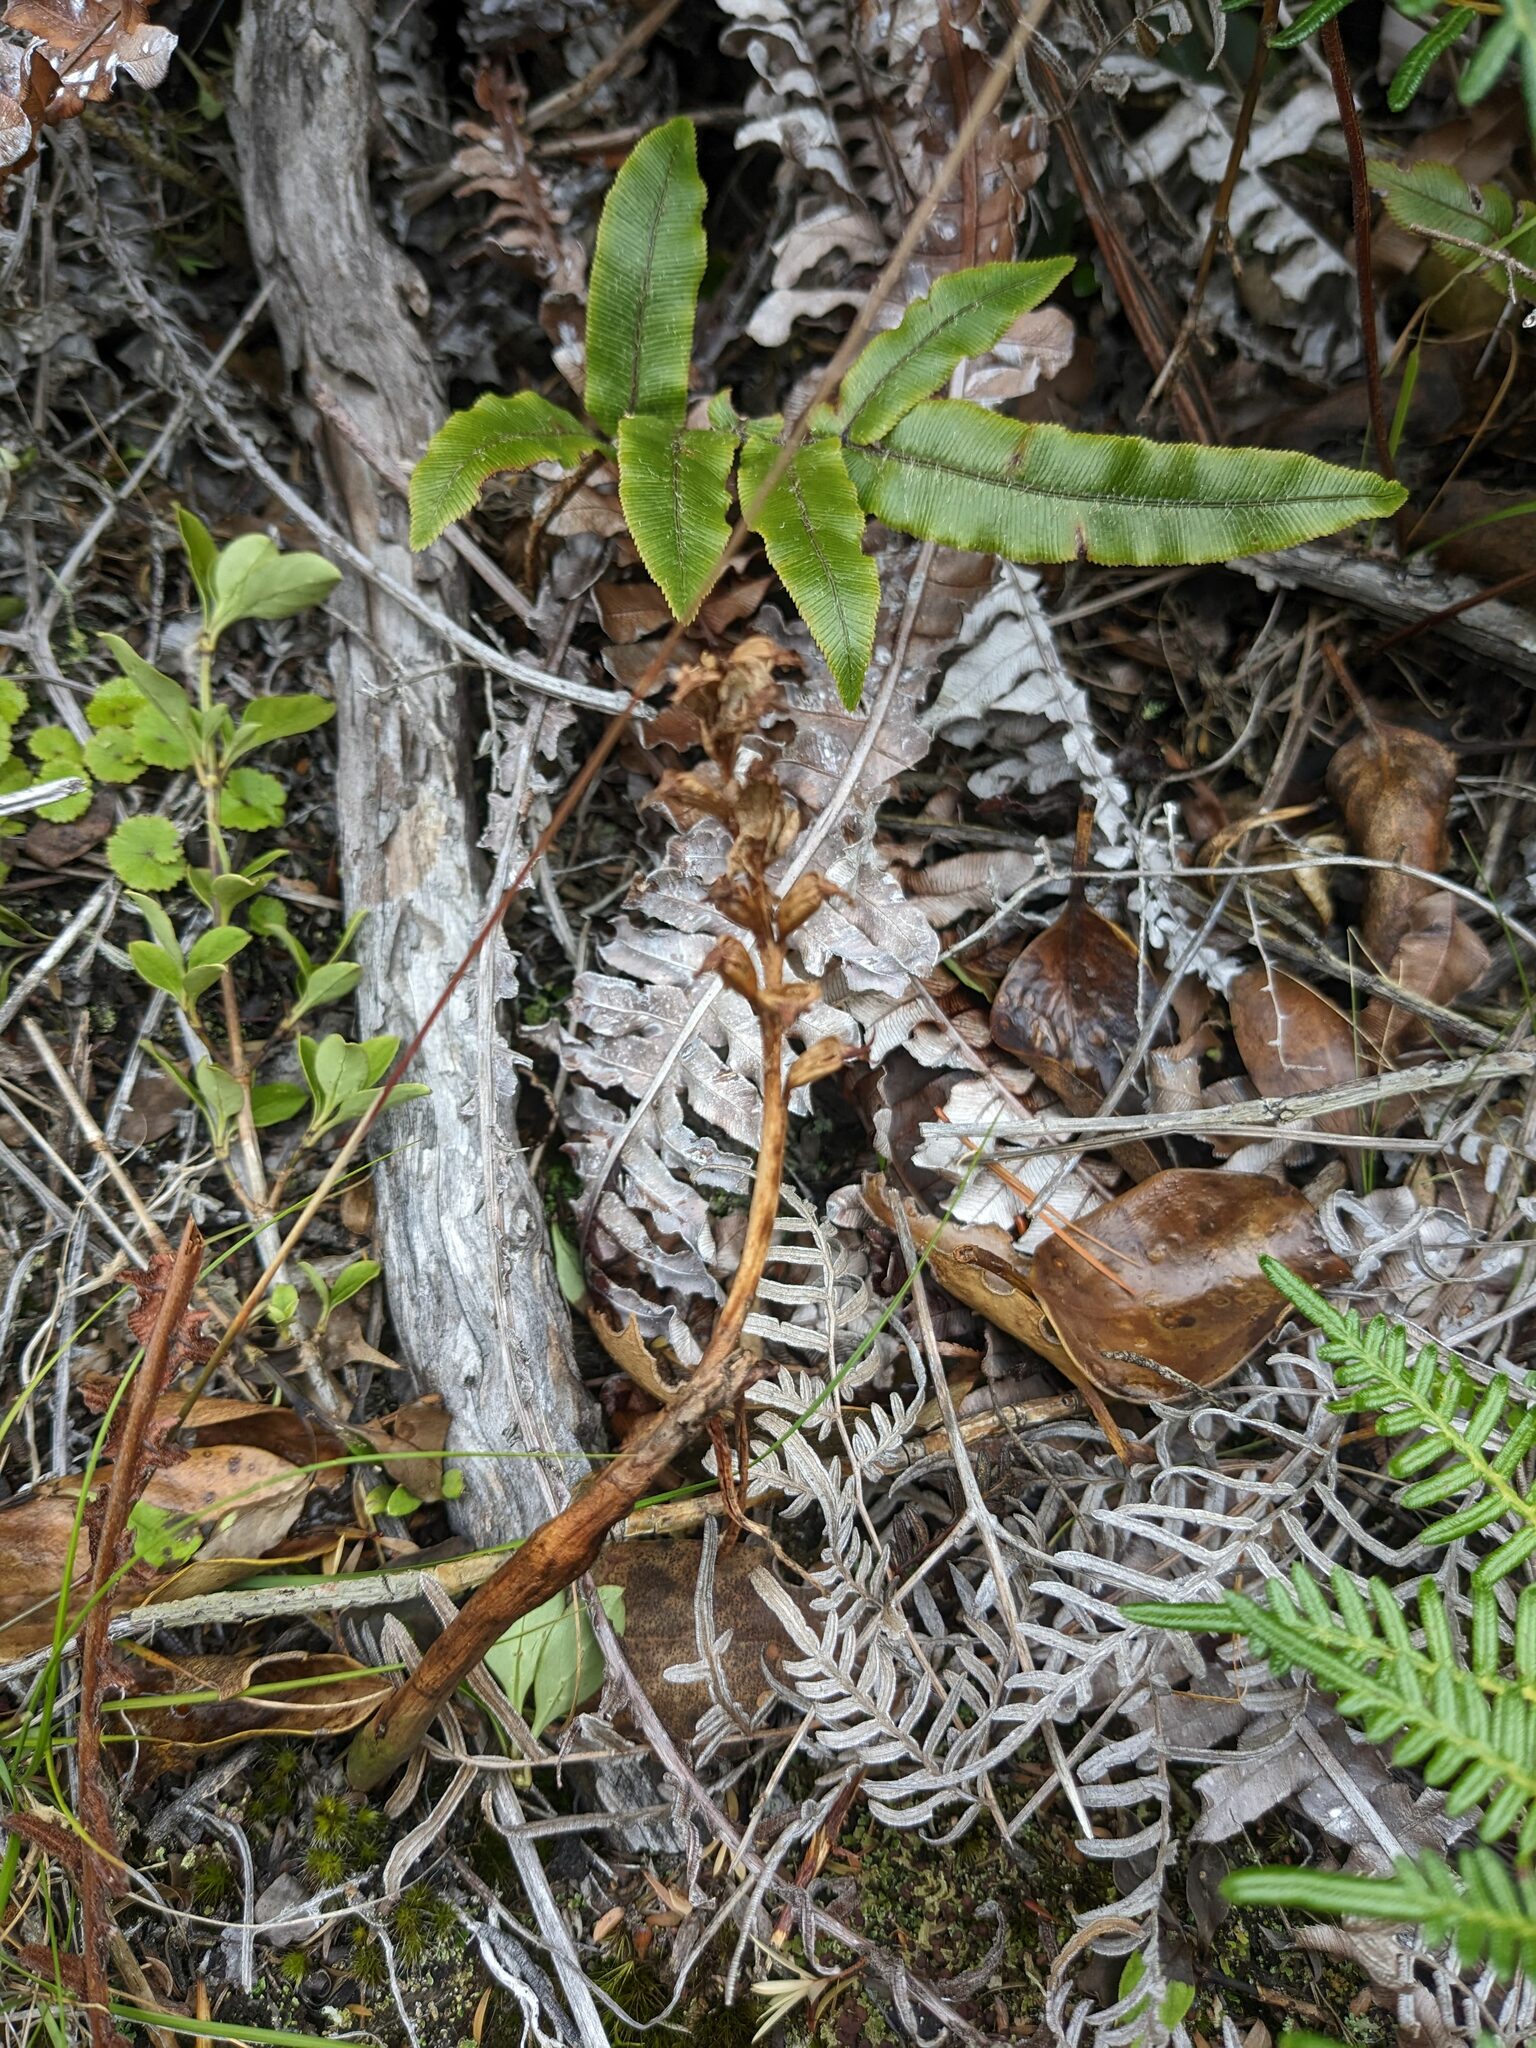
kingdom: Plantae
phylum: Tracheophyta
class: Liliopsida
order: Asparagales
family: Orchidaceae
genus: Prasophyllum
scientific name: Prasophyllum colensoi
